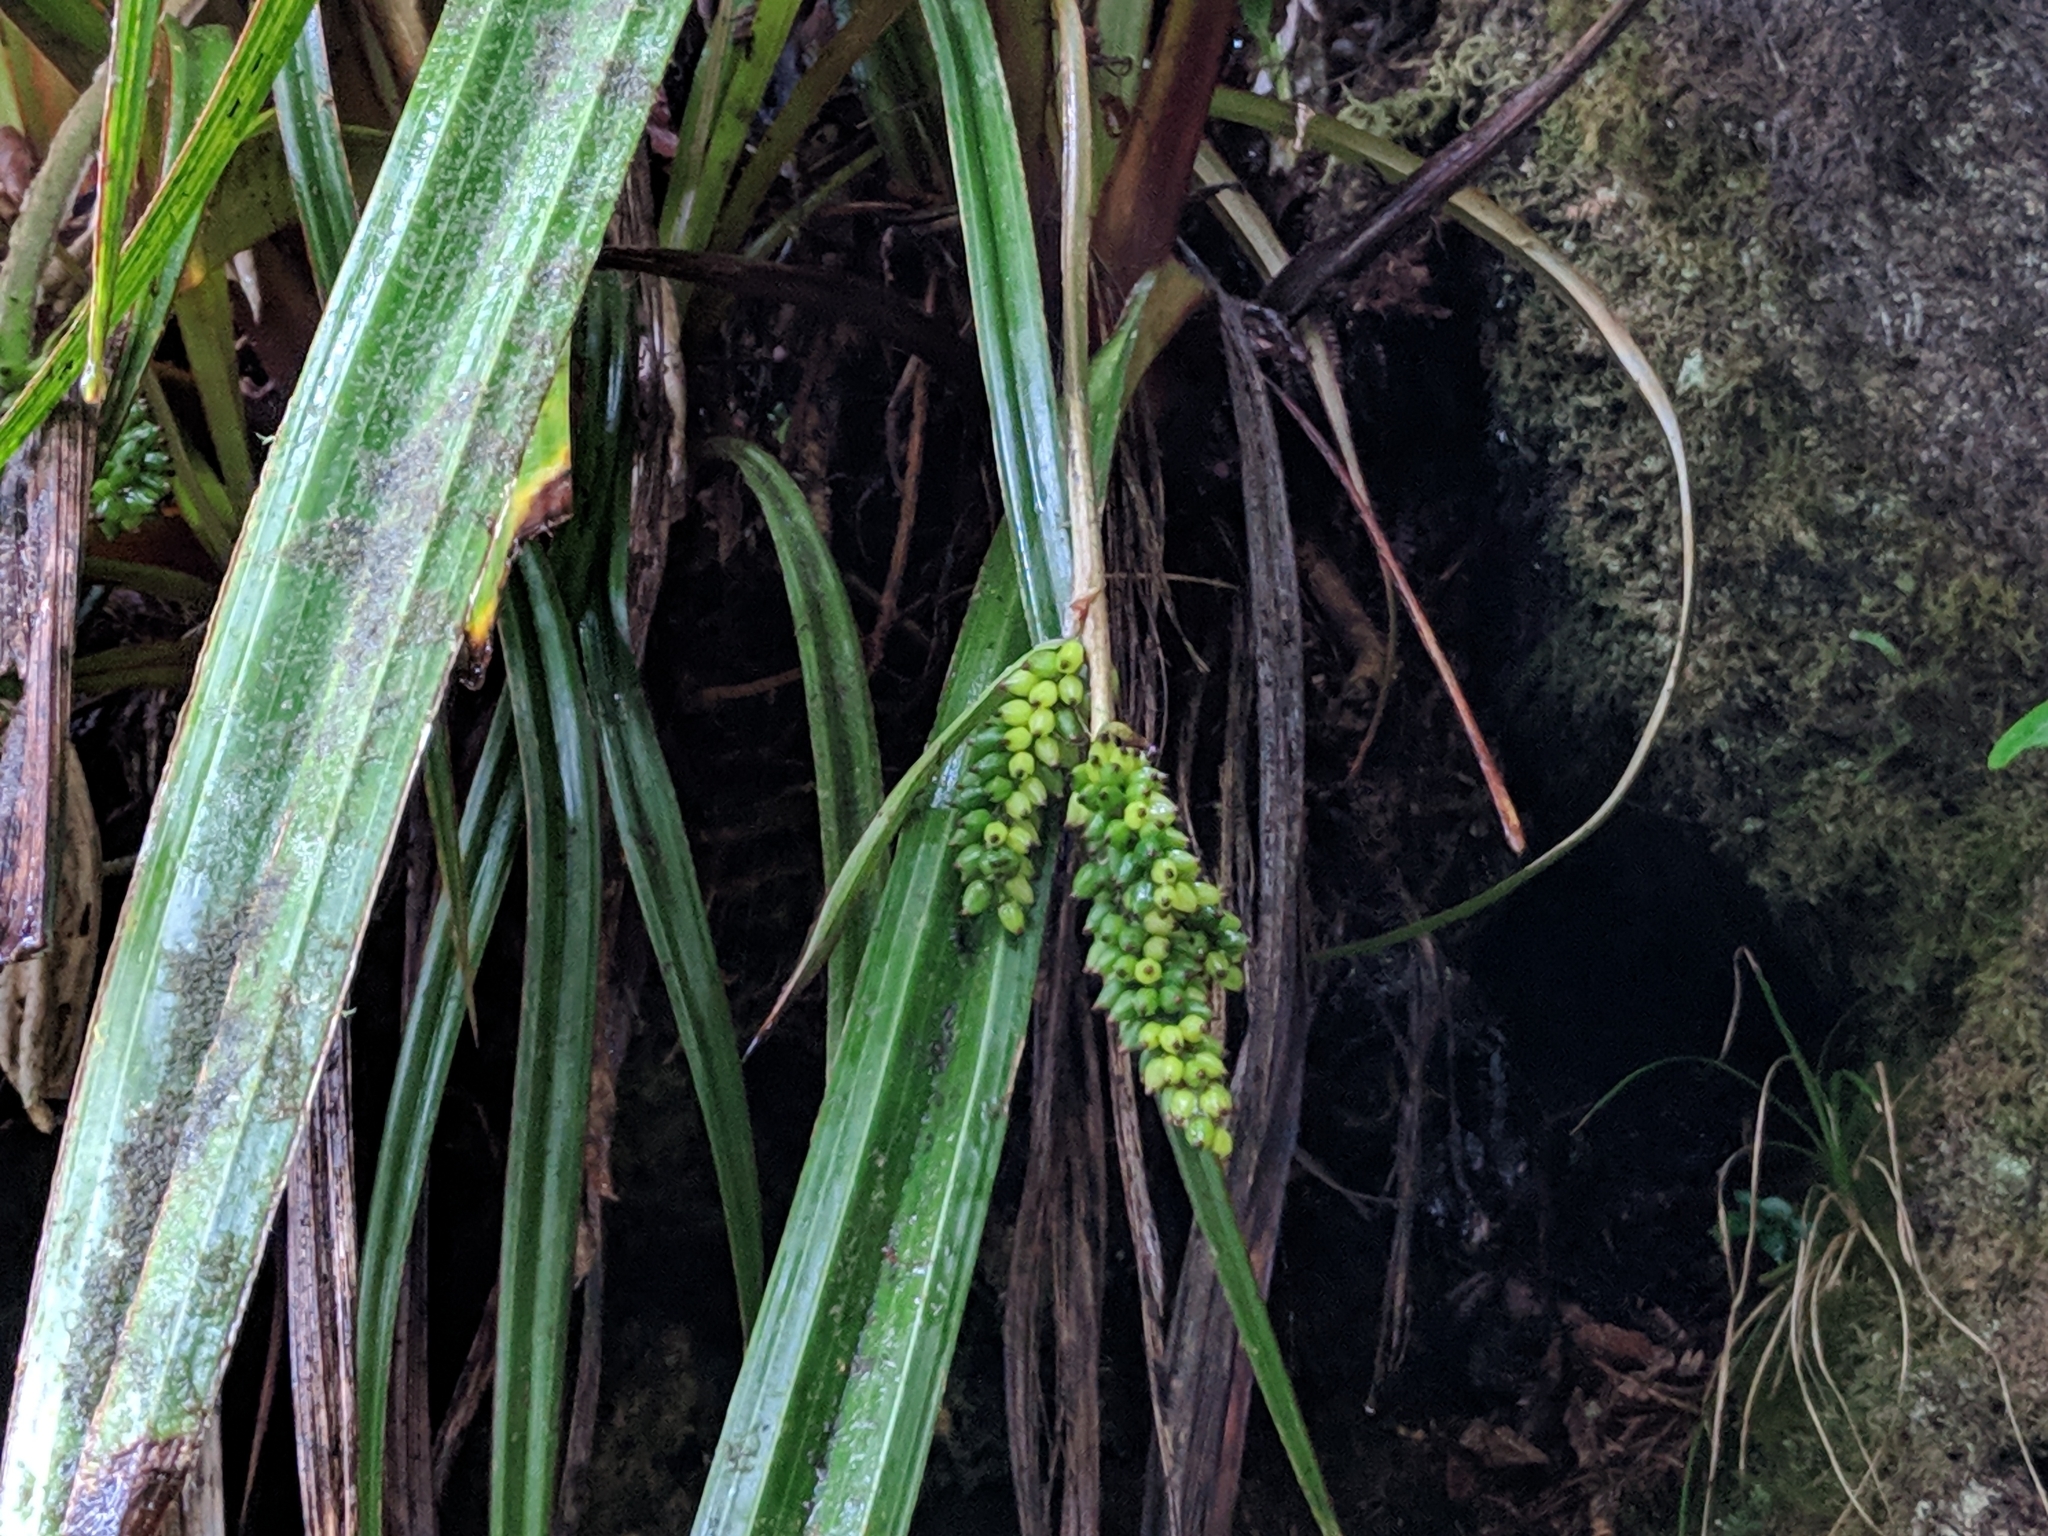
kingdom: Plantae
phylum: Tracheophyta
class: Liliopsida
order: Asparagales
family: Asteliaceae
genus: Astelia
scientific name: Astelia hemichrysa
